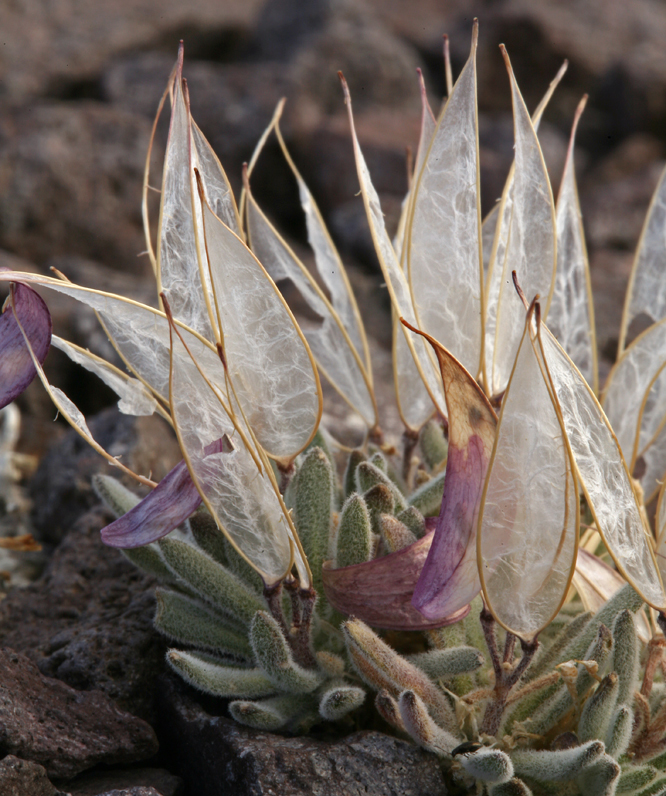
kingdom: Plantae
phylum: Tracheophyta
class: Magnoliopsida
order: Brassicales
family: Brassicaceae
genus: Anelsonia
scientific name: Anelsonia eurycarpa
